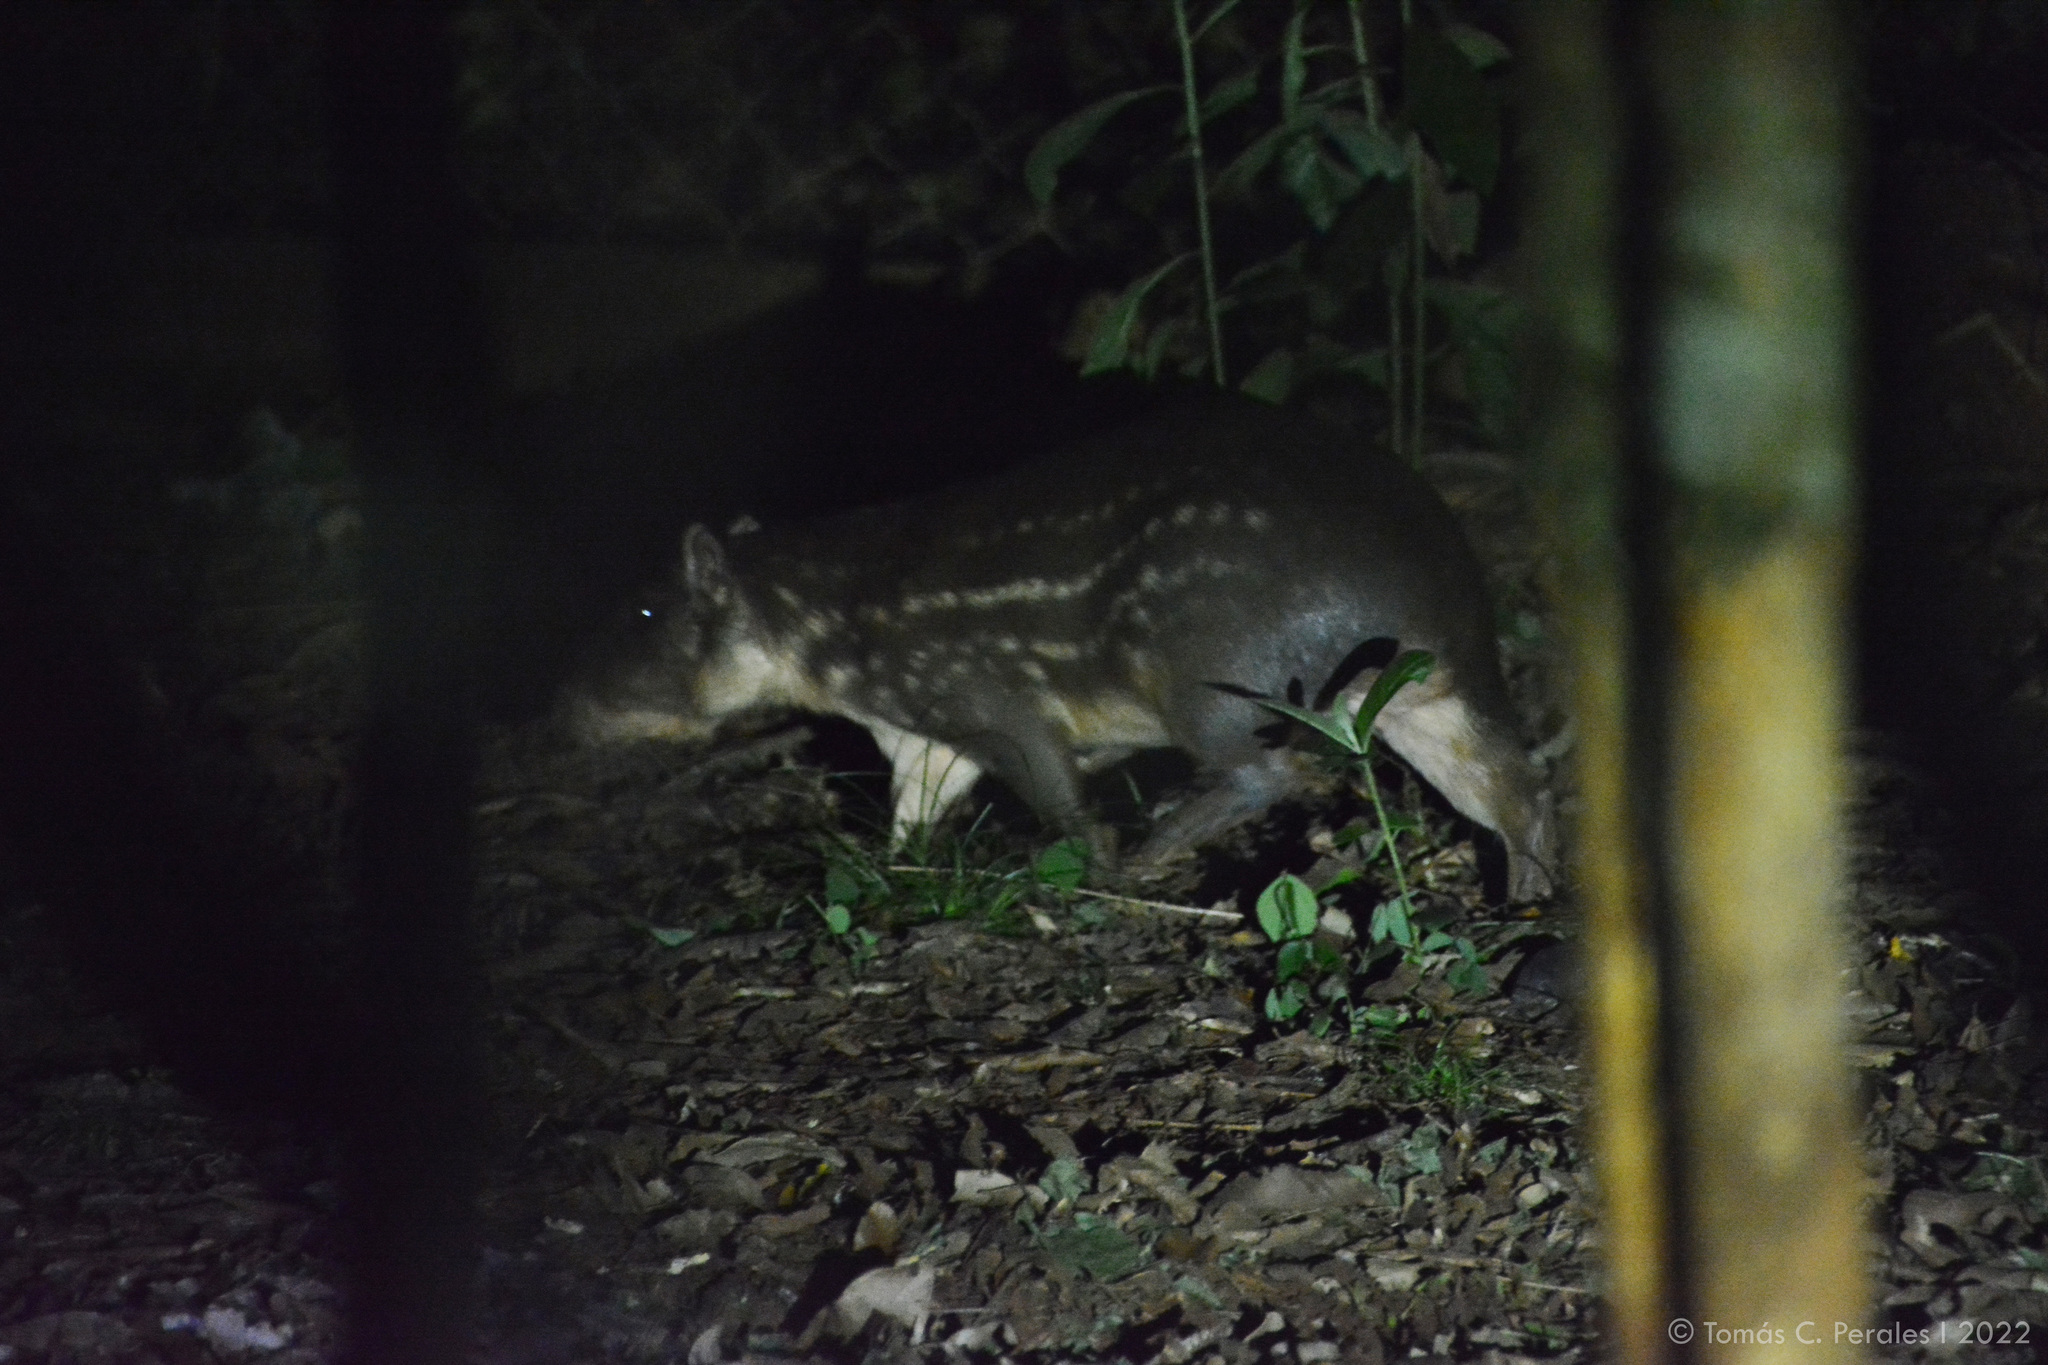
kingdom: Animalia
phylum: Chordata
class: Mammalia
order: Rodentia
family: Cuniculidae
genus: Cuniculus
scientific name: Cuniculus paca
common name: Lowland paca
